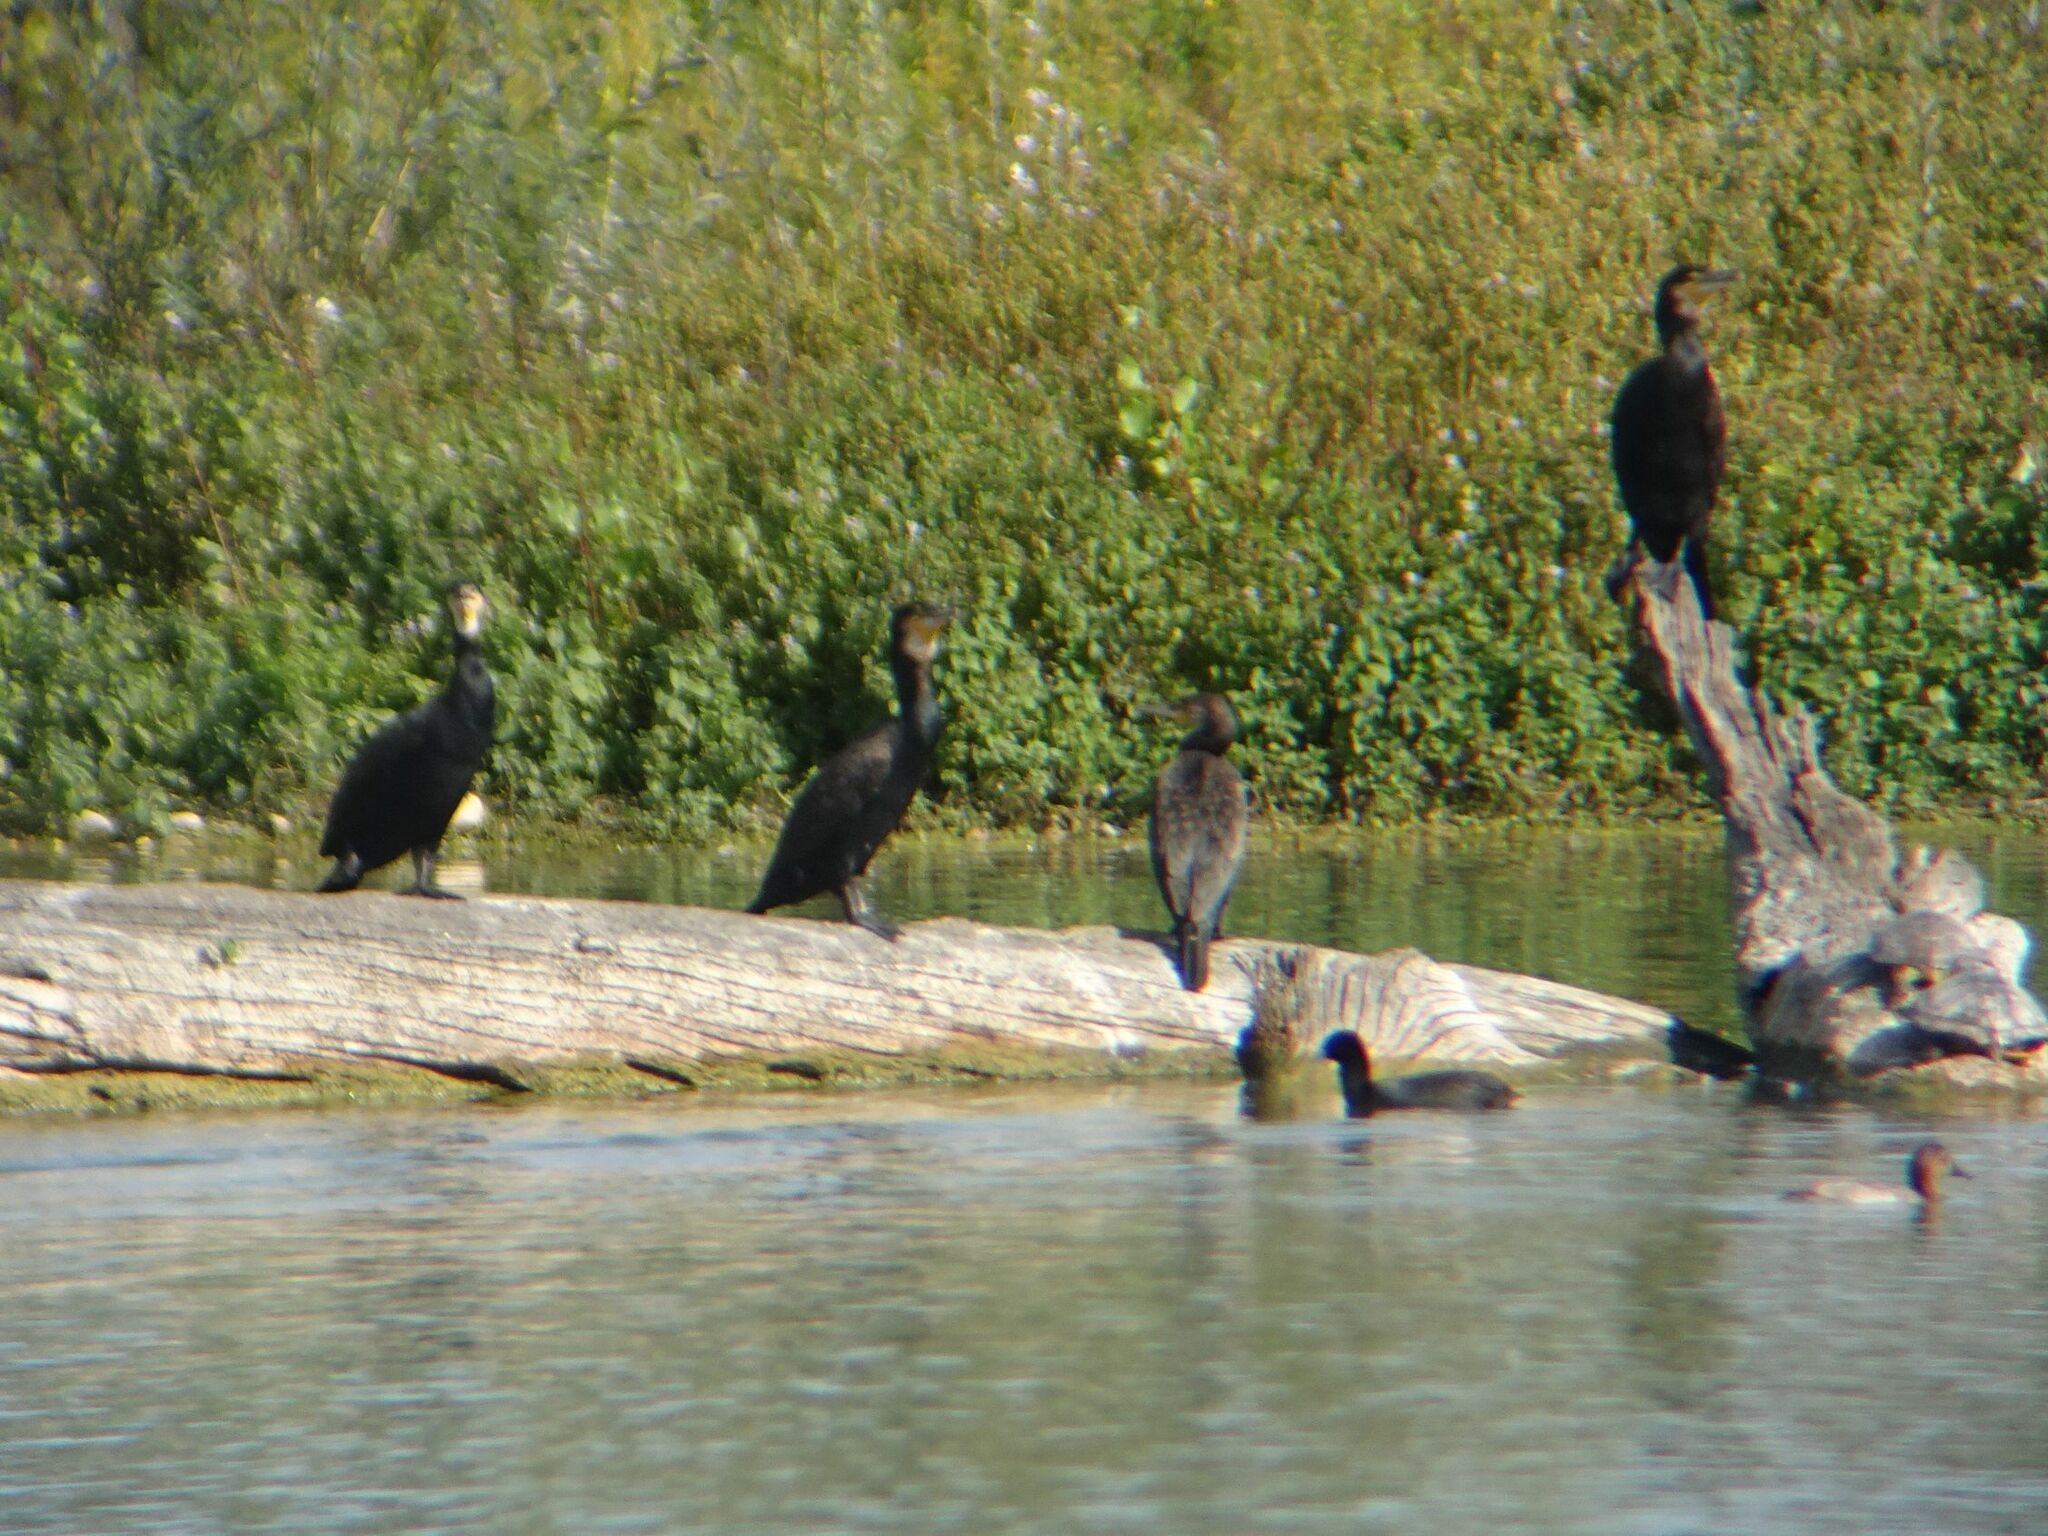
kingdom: Animalia
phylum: Chordata
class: Aves
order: Suliformes
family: Phalacrocoracidae
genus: Phalacrocorax
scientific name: Phalacrocorax carbo
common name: Great cormorant
